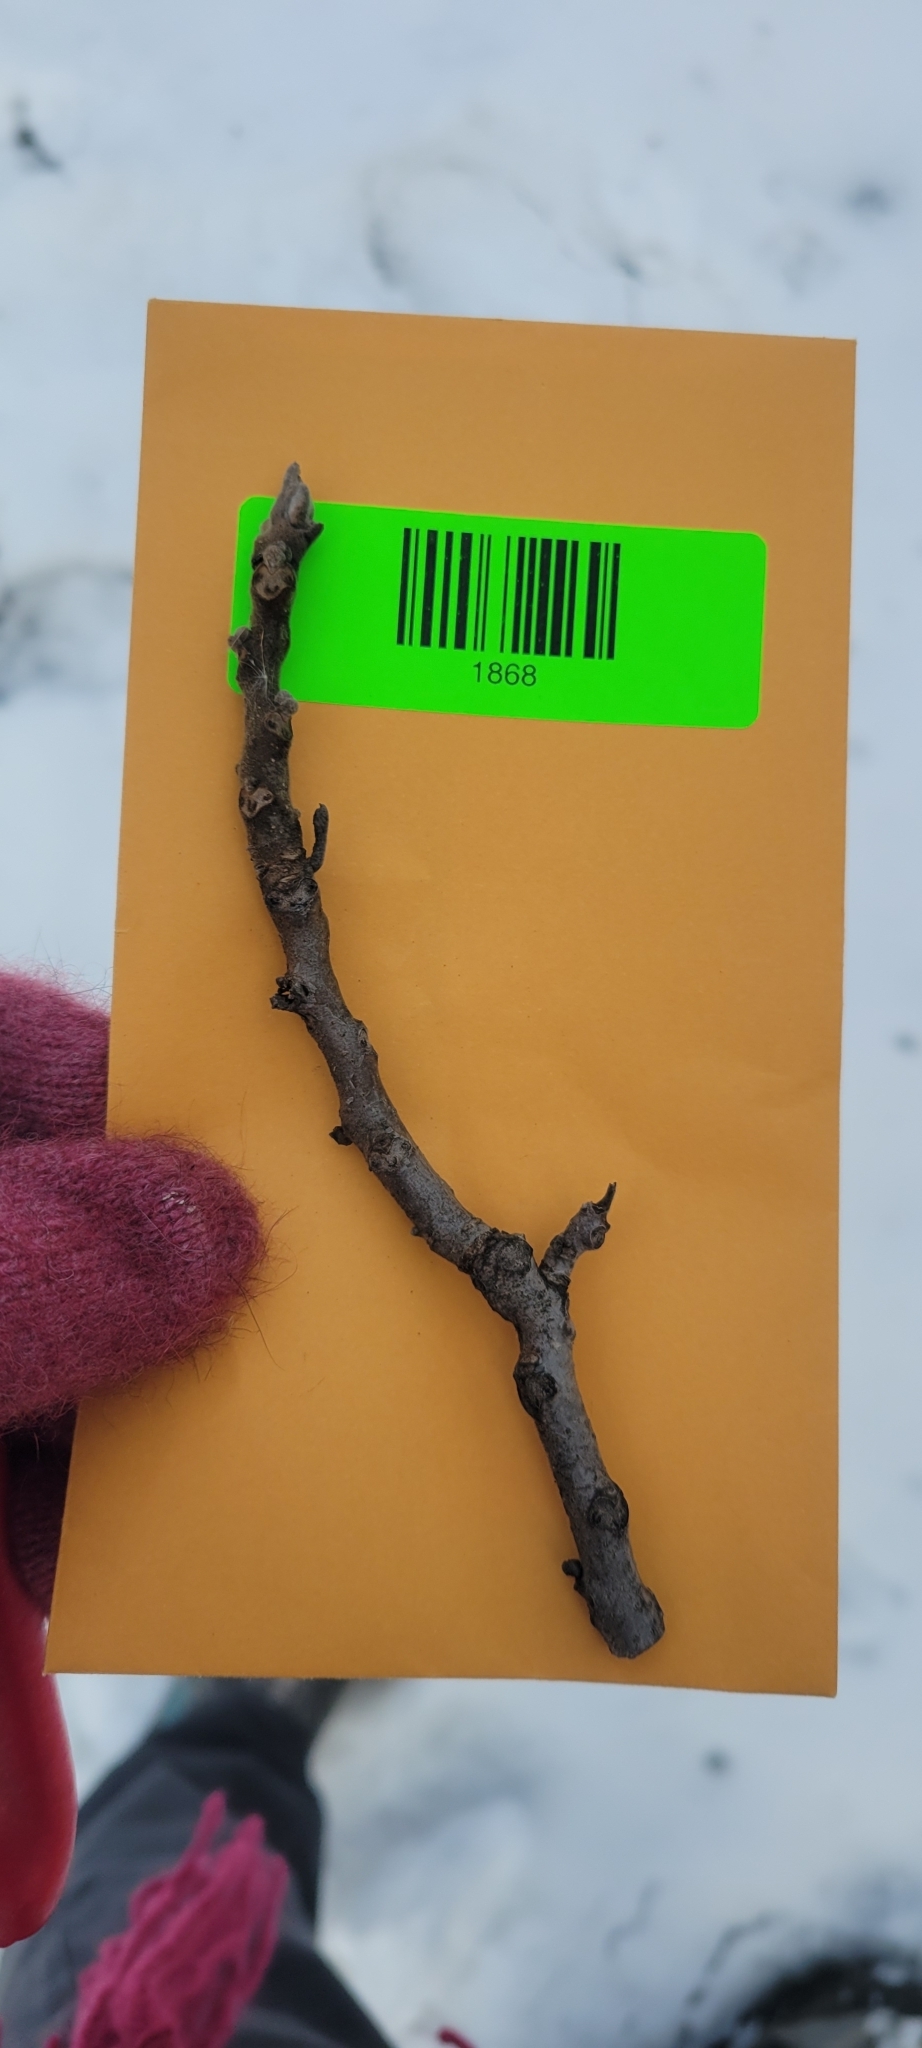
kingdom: Plantae
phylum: Tracheophyta
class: Magnoliopsida
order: Fagales
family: Juglandaceae
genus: Juglans
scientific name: Juglans nigra
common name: Black walnut
